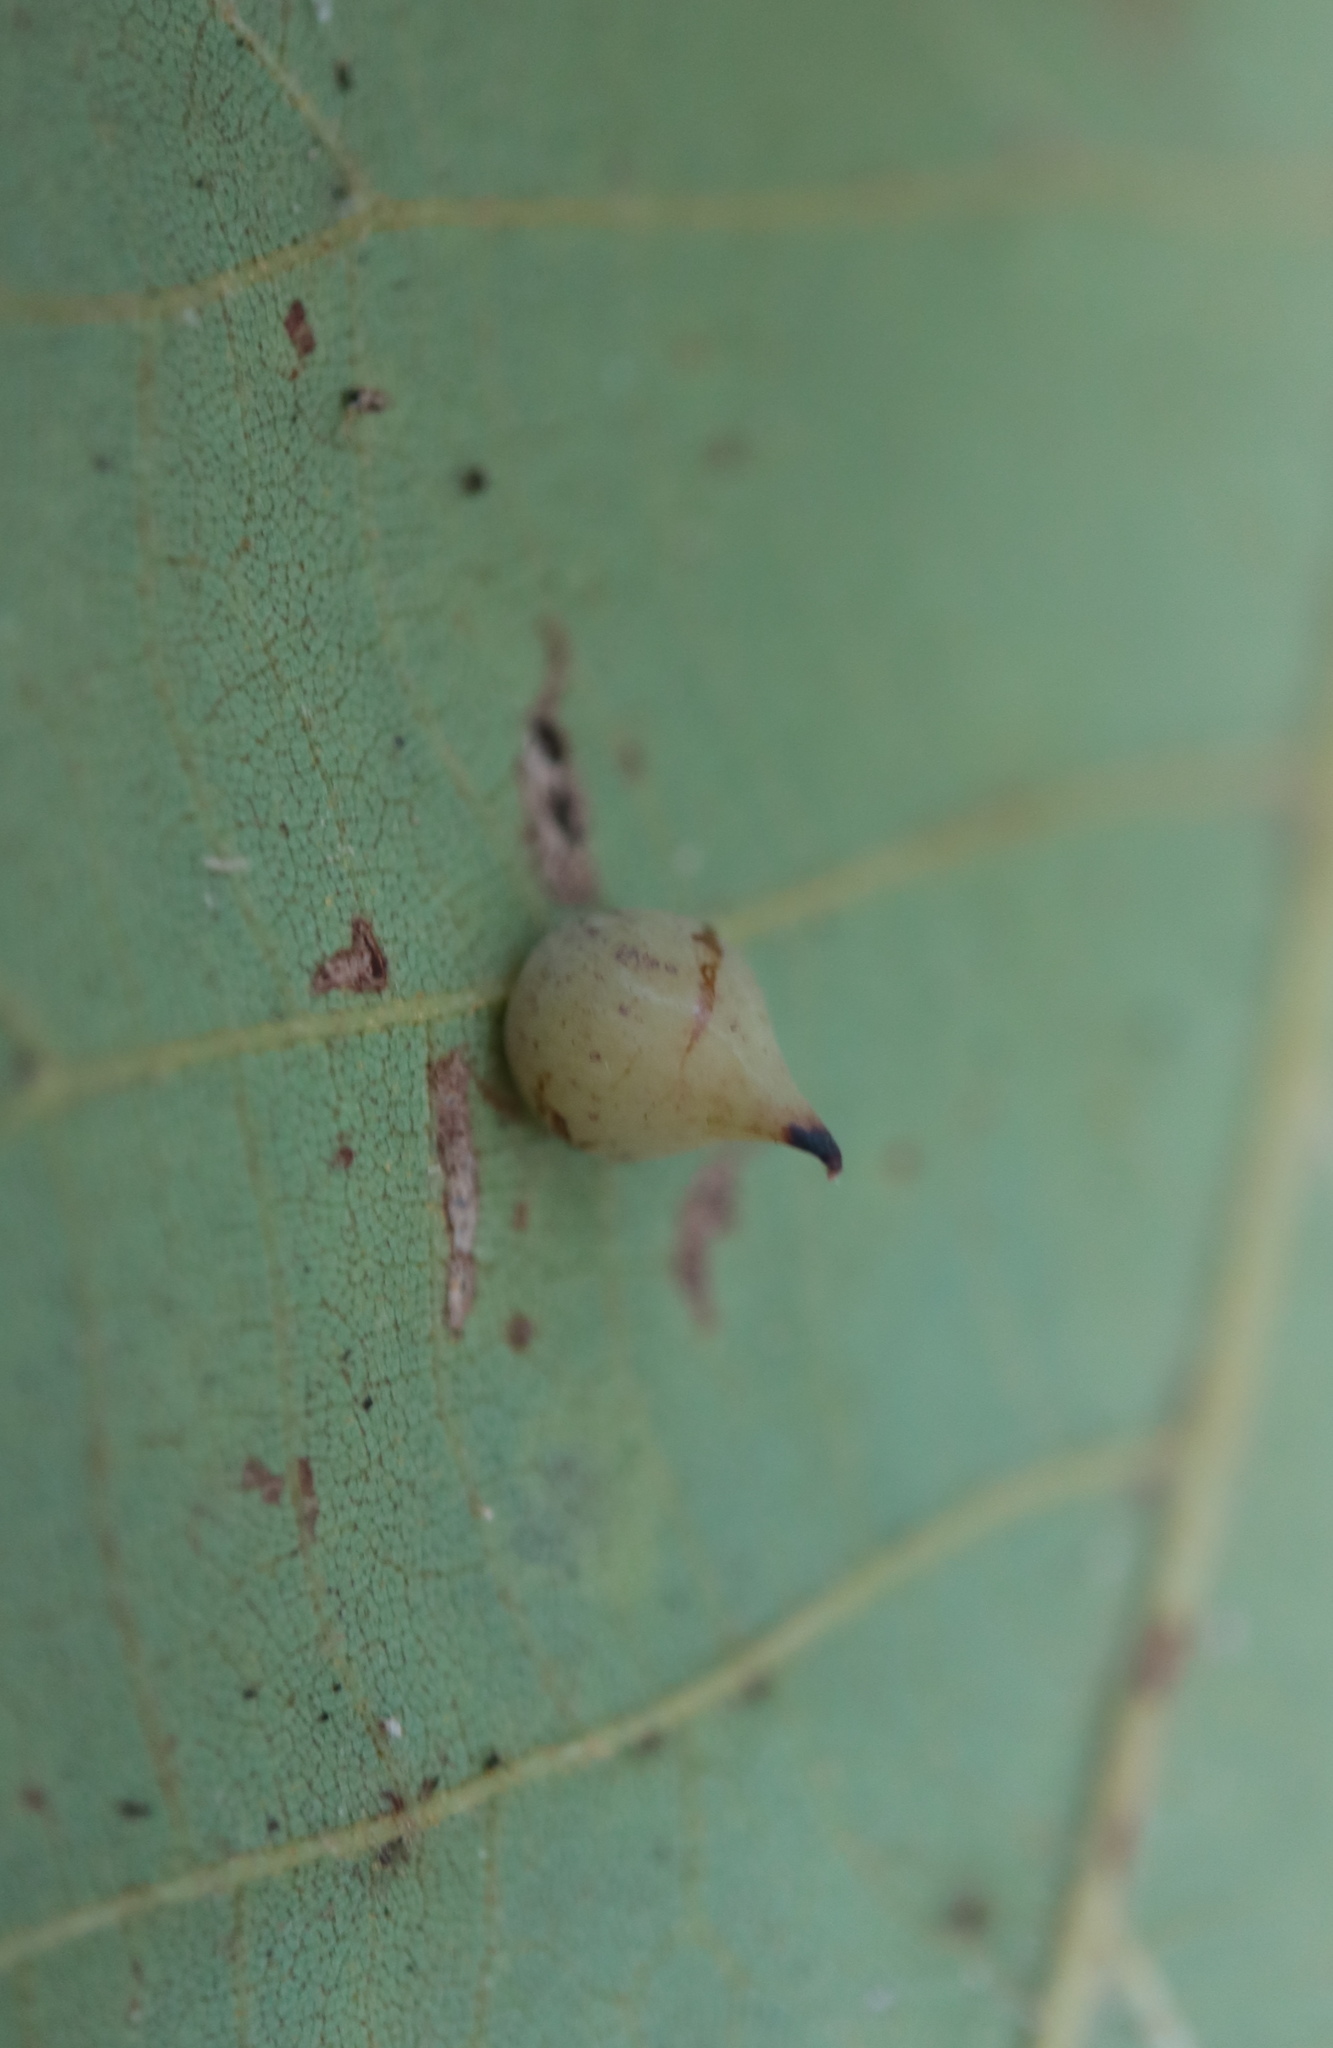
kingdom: Animalia
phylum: Arthropoda
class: Insecta
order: Diptera
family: Cecidomyiidae
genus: Caryomyia
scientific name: Caryomyia caryaecola
